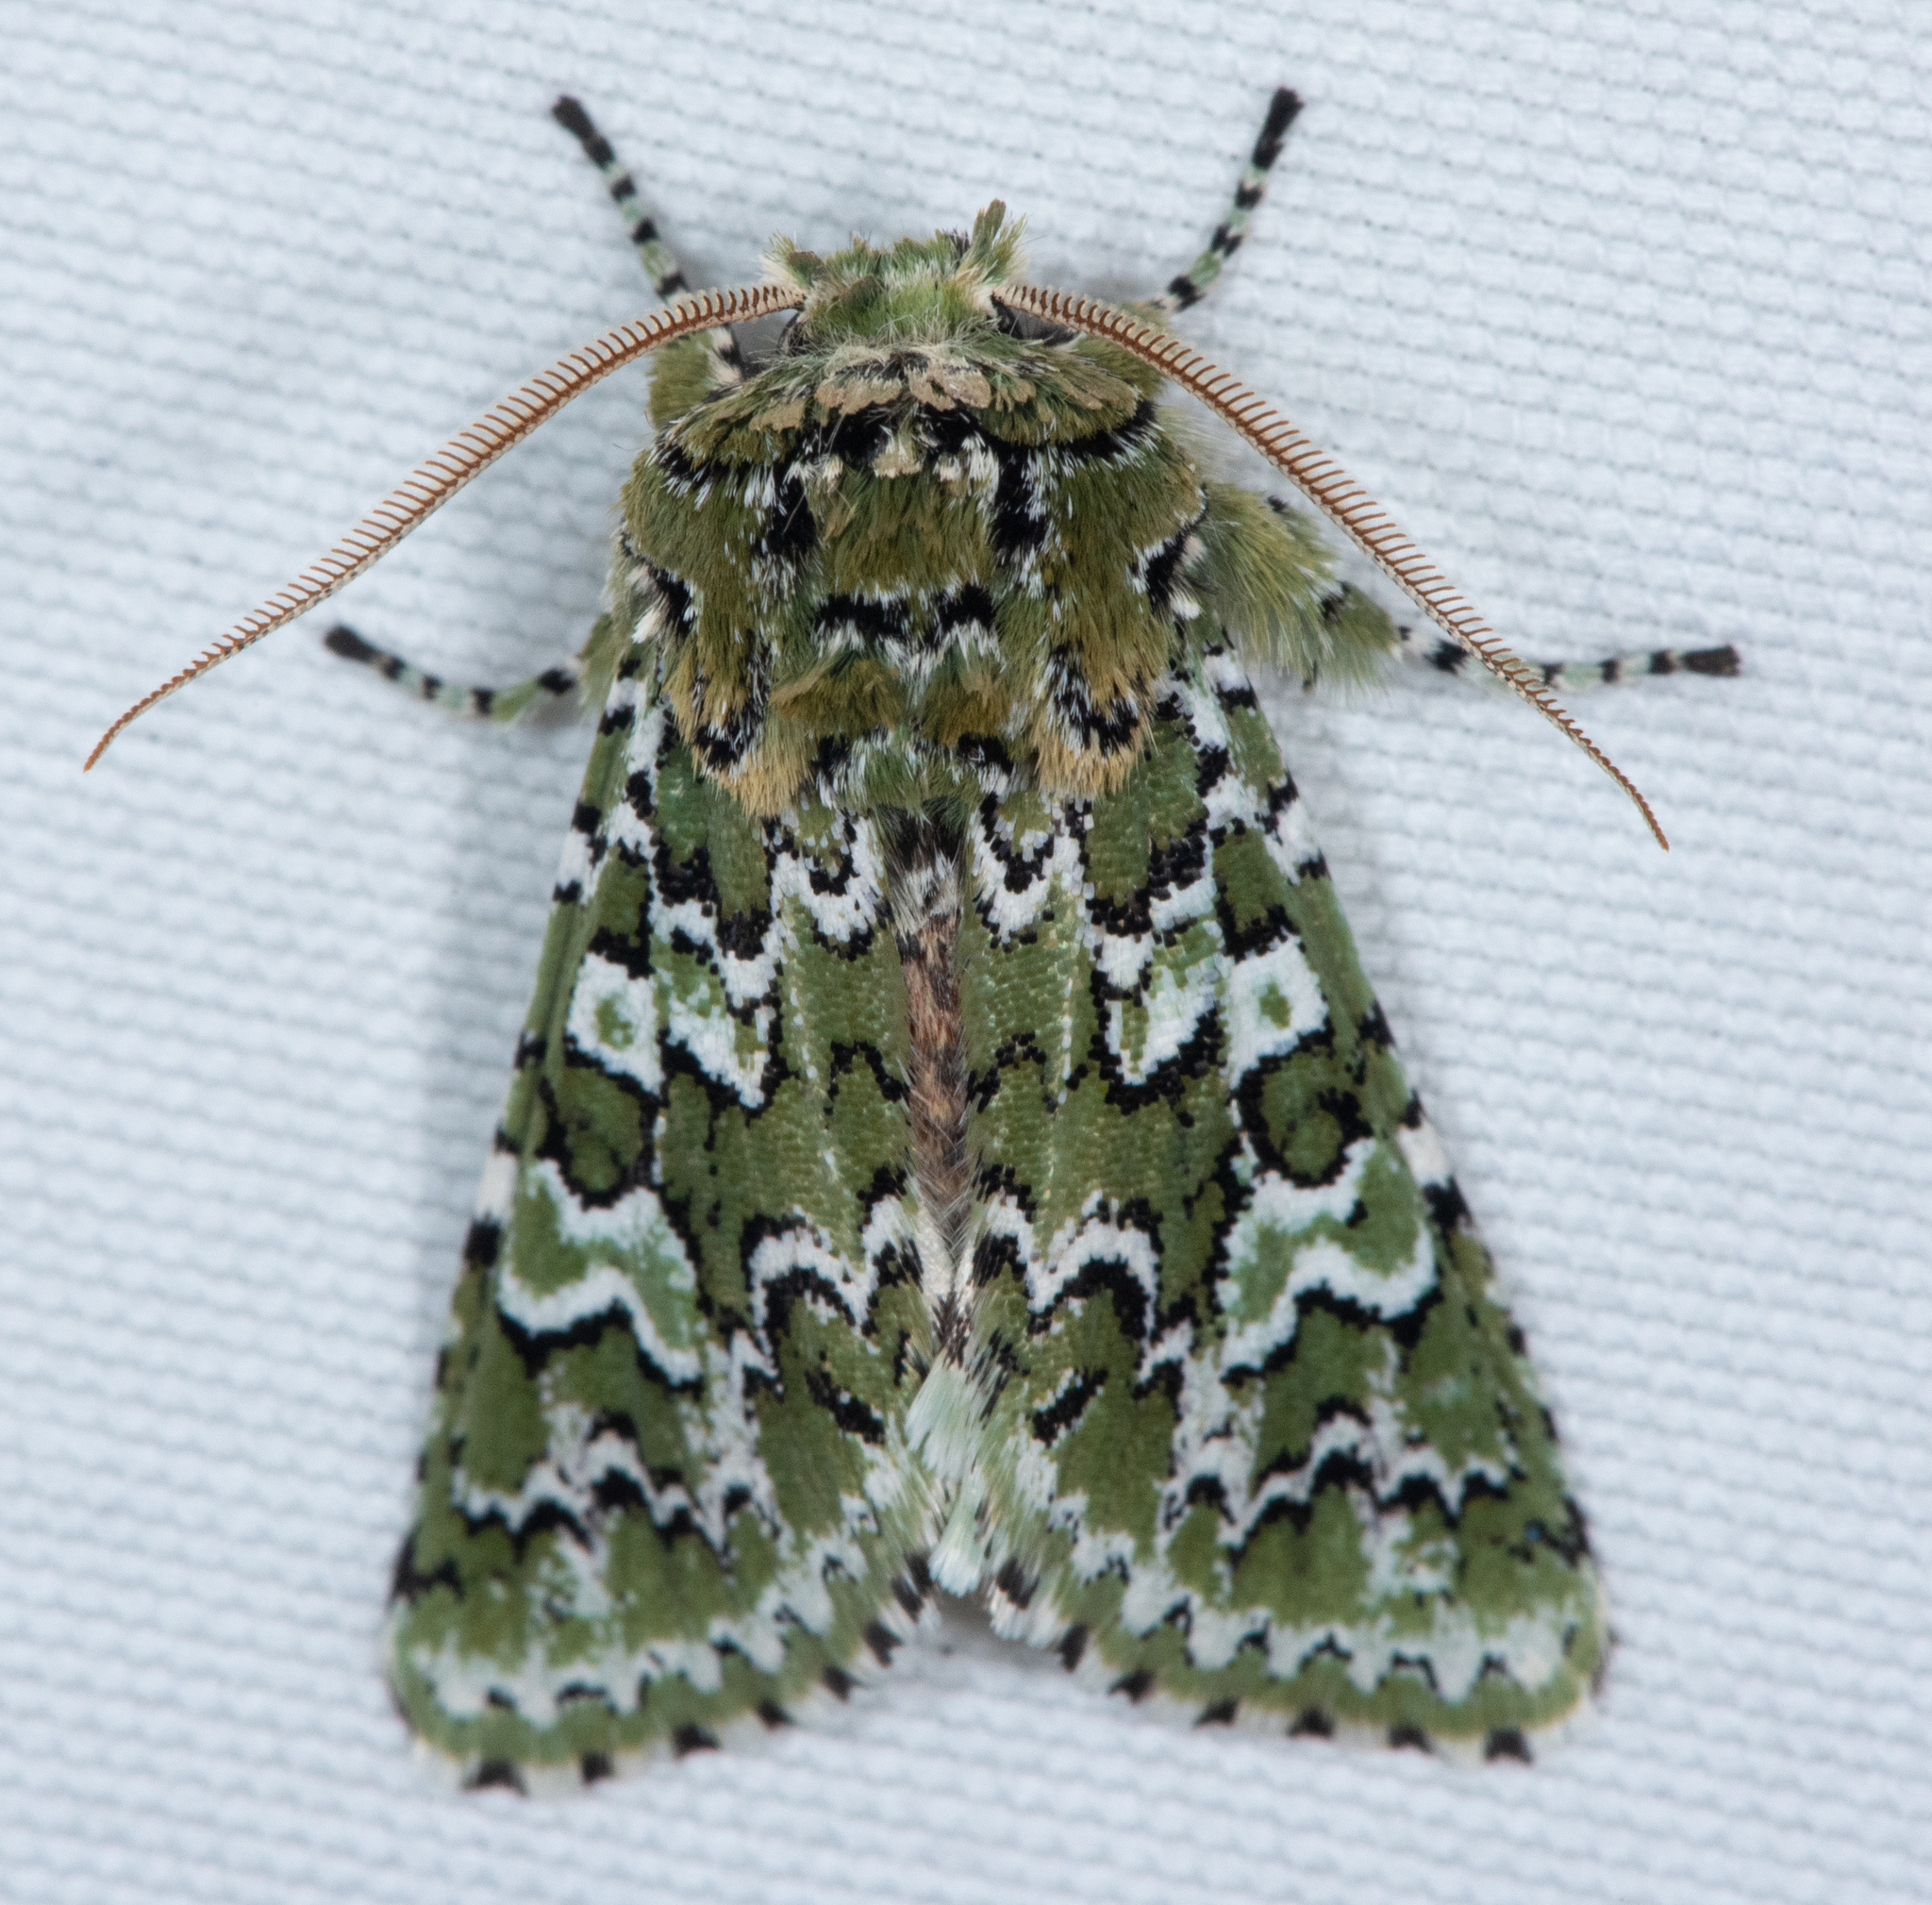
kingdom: Animalia
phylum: Arthropoda
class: Insecta
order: Lepidoptera
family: Noctuidae
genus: Feralia
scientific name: Feralia februalis
